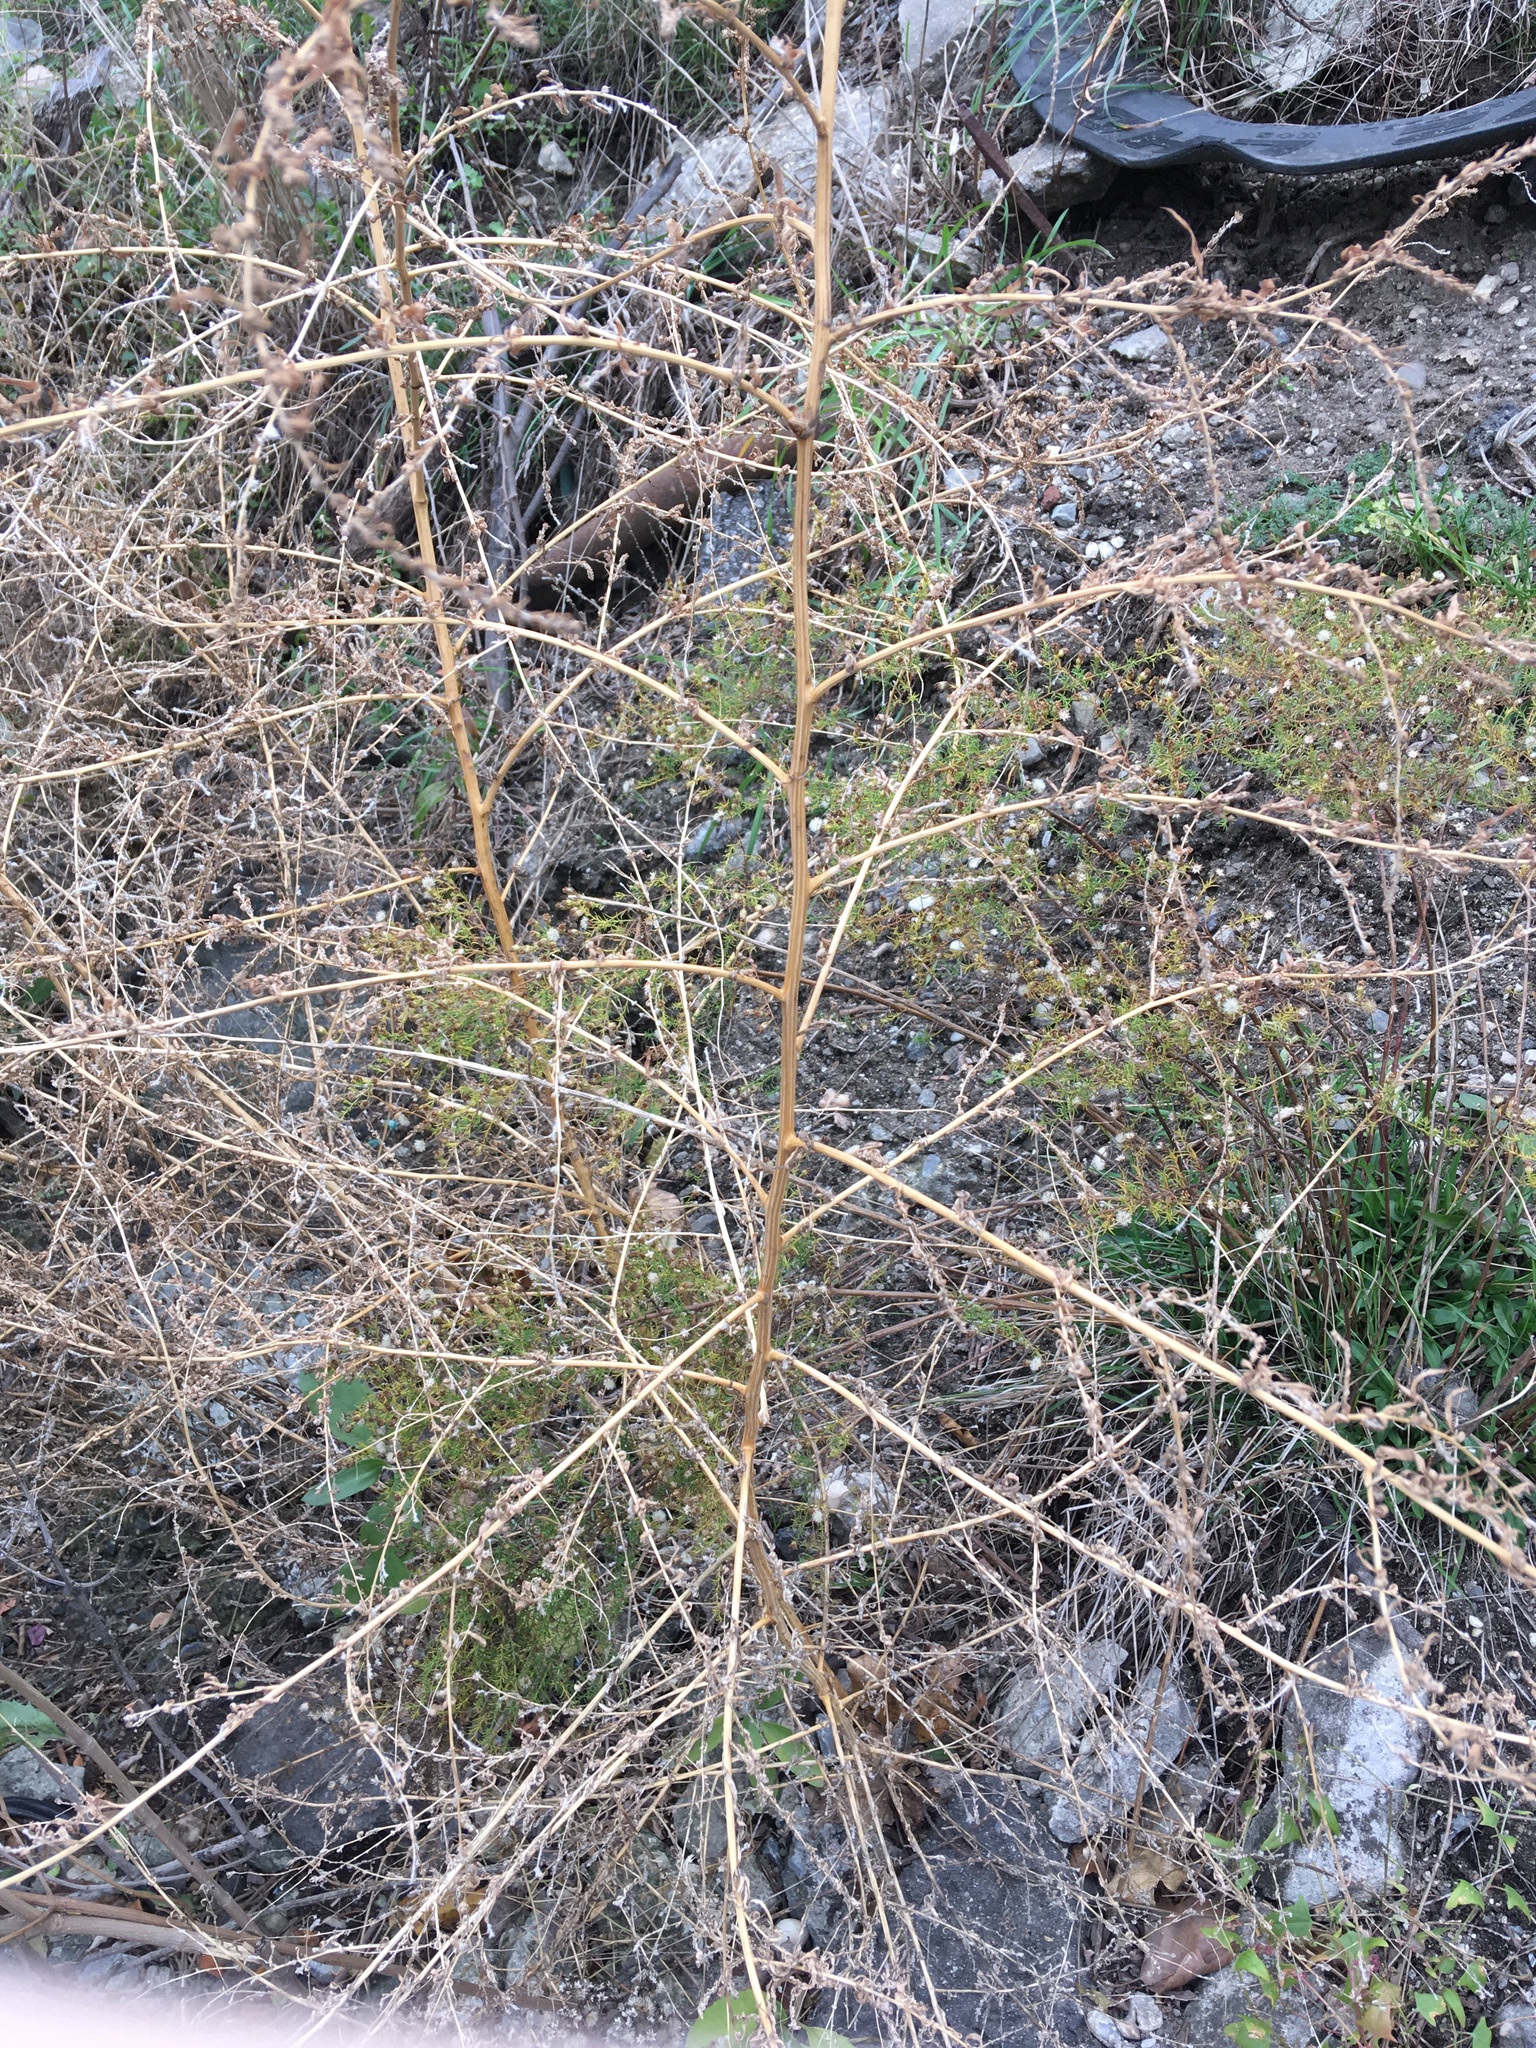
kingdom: Plantae
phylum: Tracheophyta
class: Magnoliopsida
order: Caryophyllales
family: Amaranthaceae
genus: Bassia
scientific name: Bassia scoparia
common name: Belvedere
